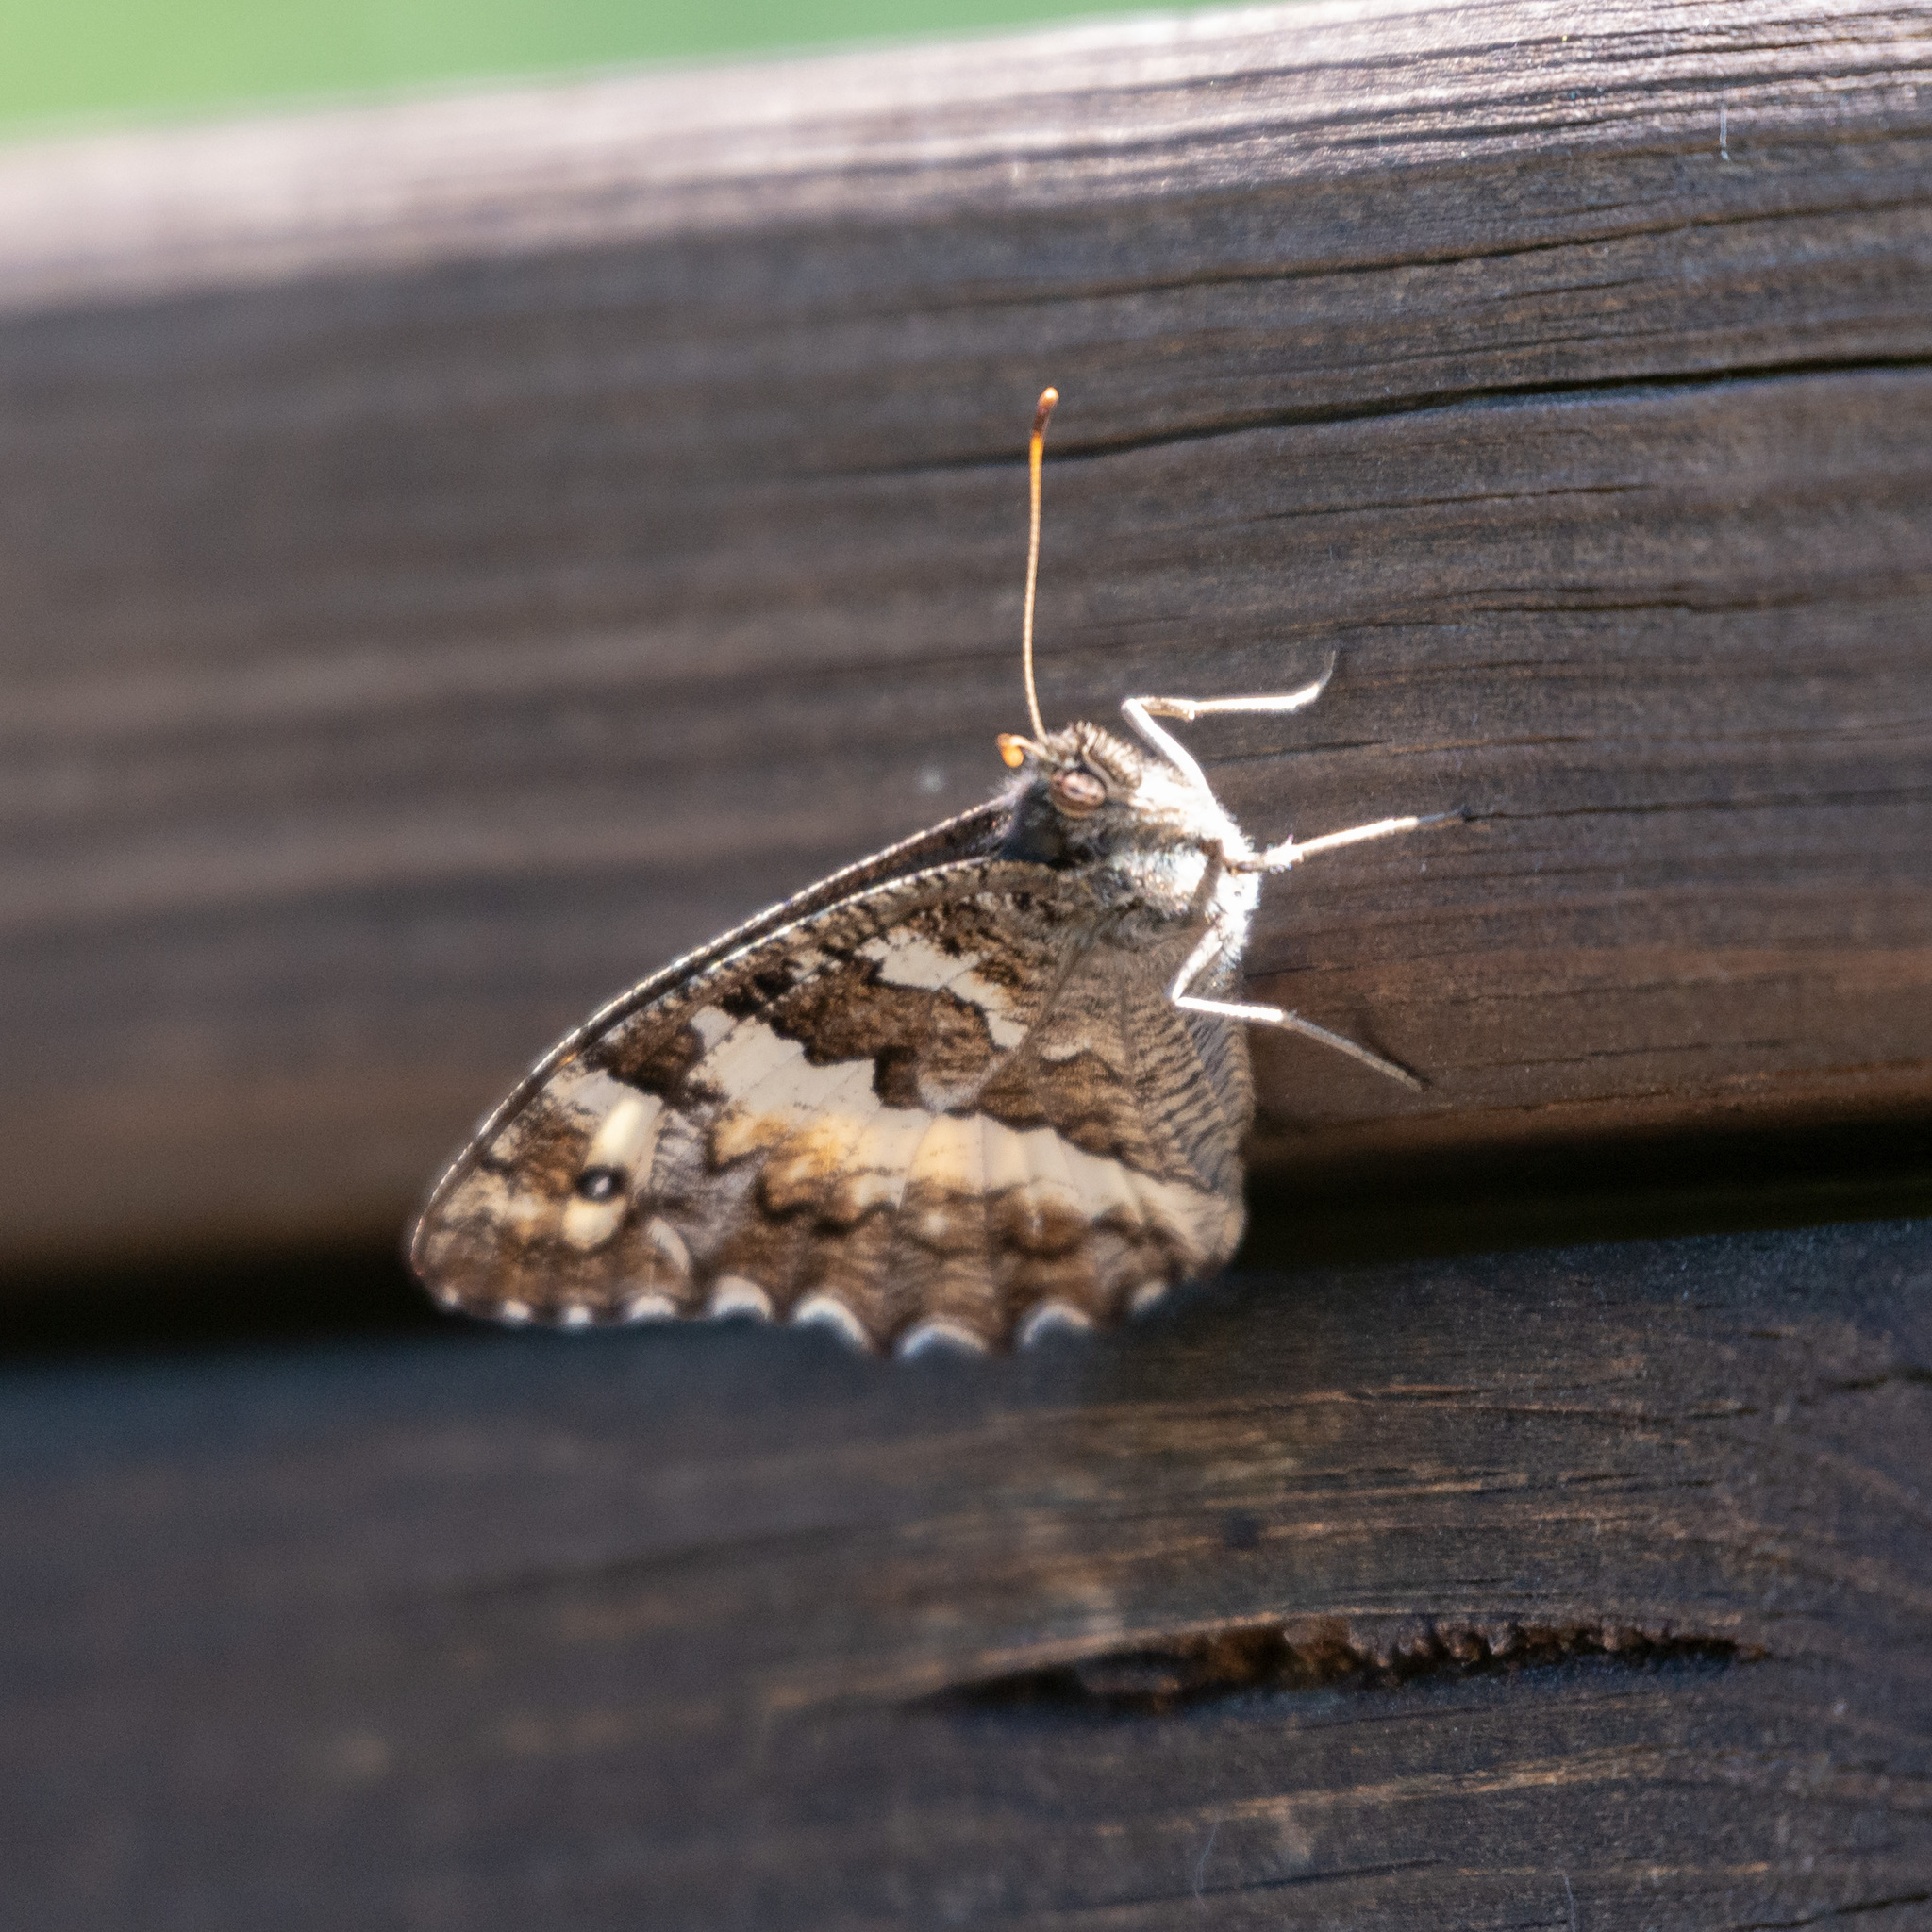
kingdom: Animalia
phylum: Arthropoda
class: Insecta
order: Lepidoptera
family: Lycaenidae
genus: Loweia
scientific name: Loweia tityrus
